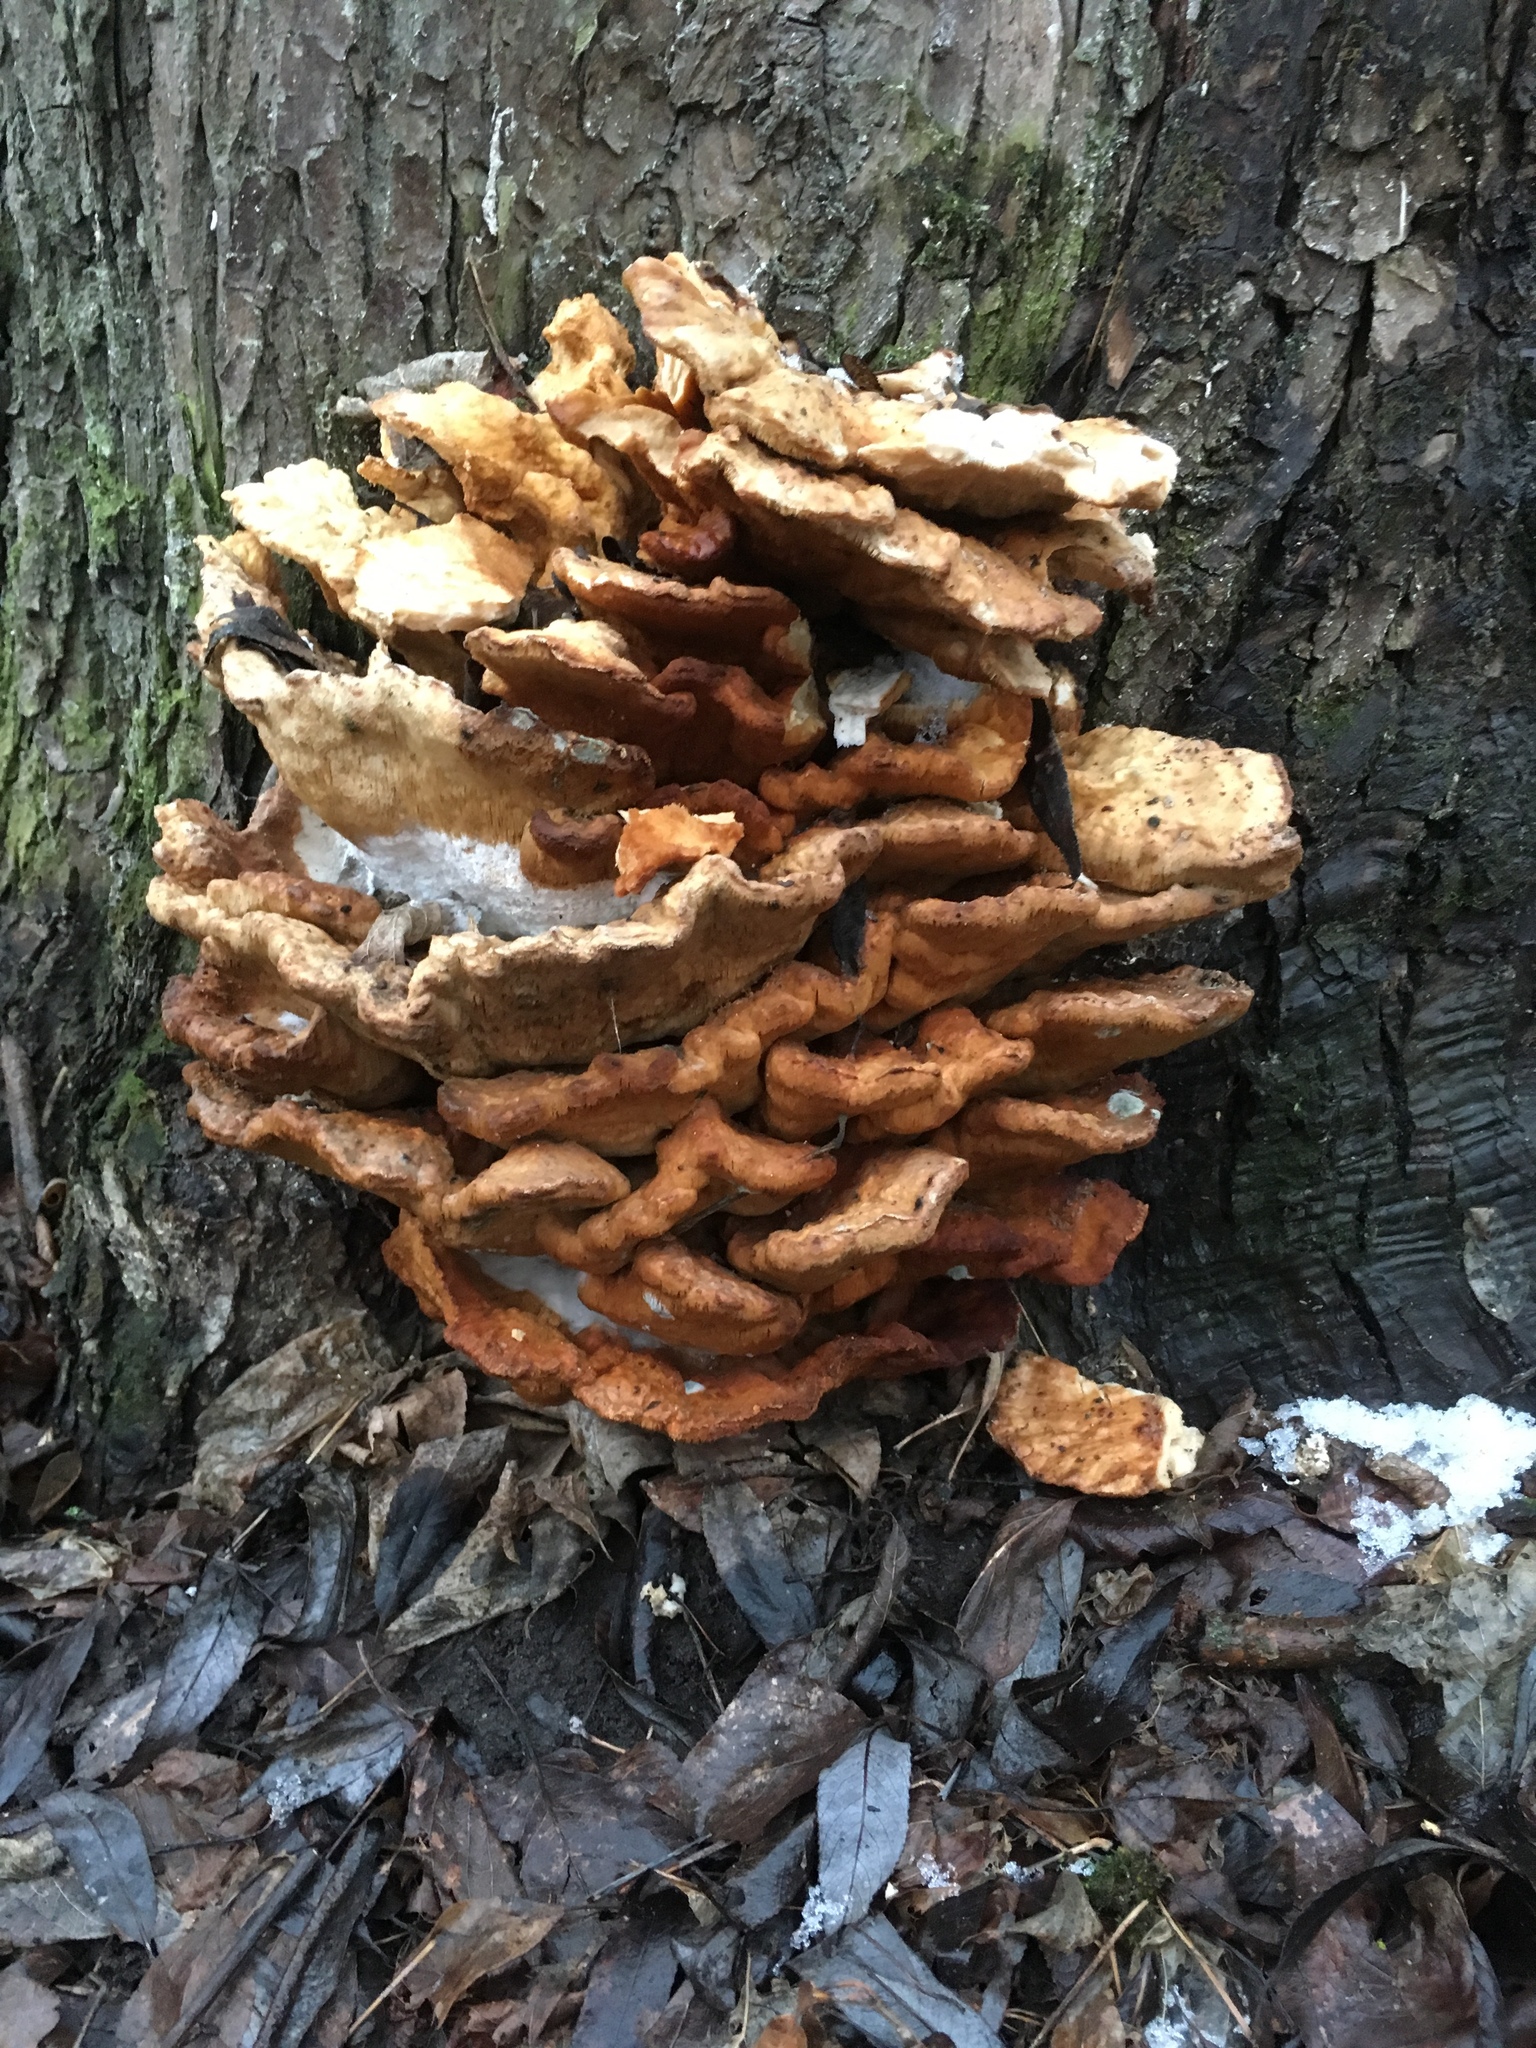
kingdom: Fungi
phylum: Basidiomycota
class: Agaricomycetes
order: Polyporales
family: Laetiporaceae
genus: Laetiporus
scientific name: Laetiporus sulphureus
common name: Chicken of the woods
